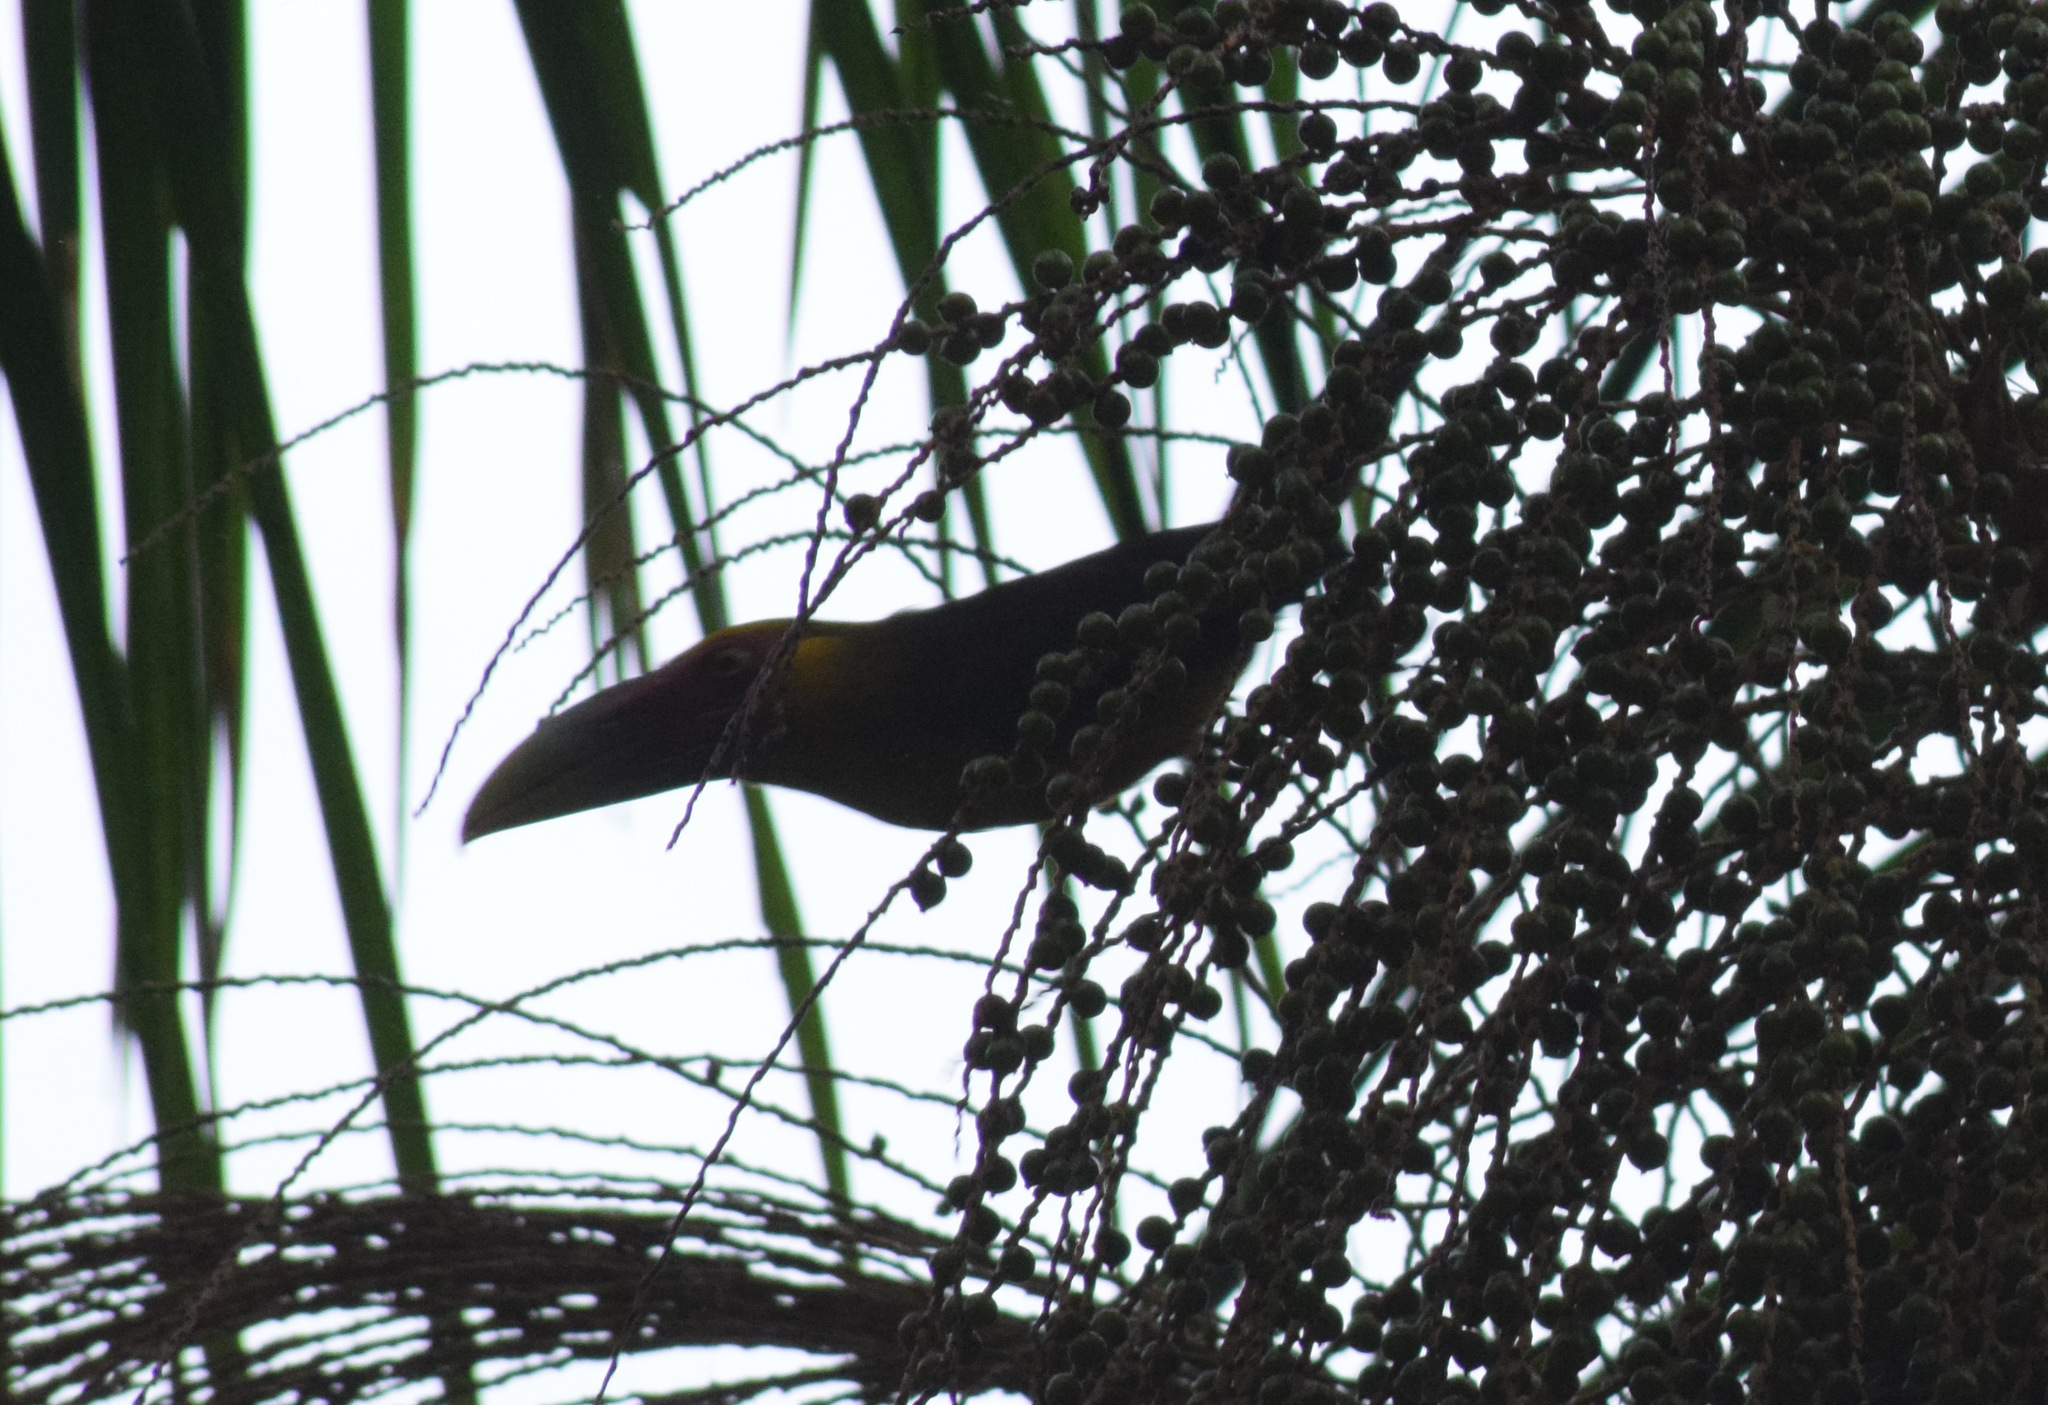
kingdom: Animalia
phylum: Chordata
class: Aves
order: Piciformes
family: Ramphastidae
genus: Pteroglossus
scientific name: Pteroglossus bailloni
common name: Saffron toucanet
